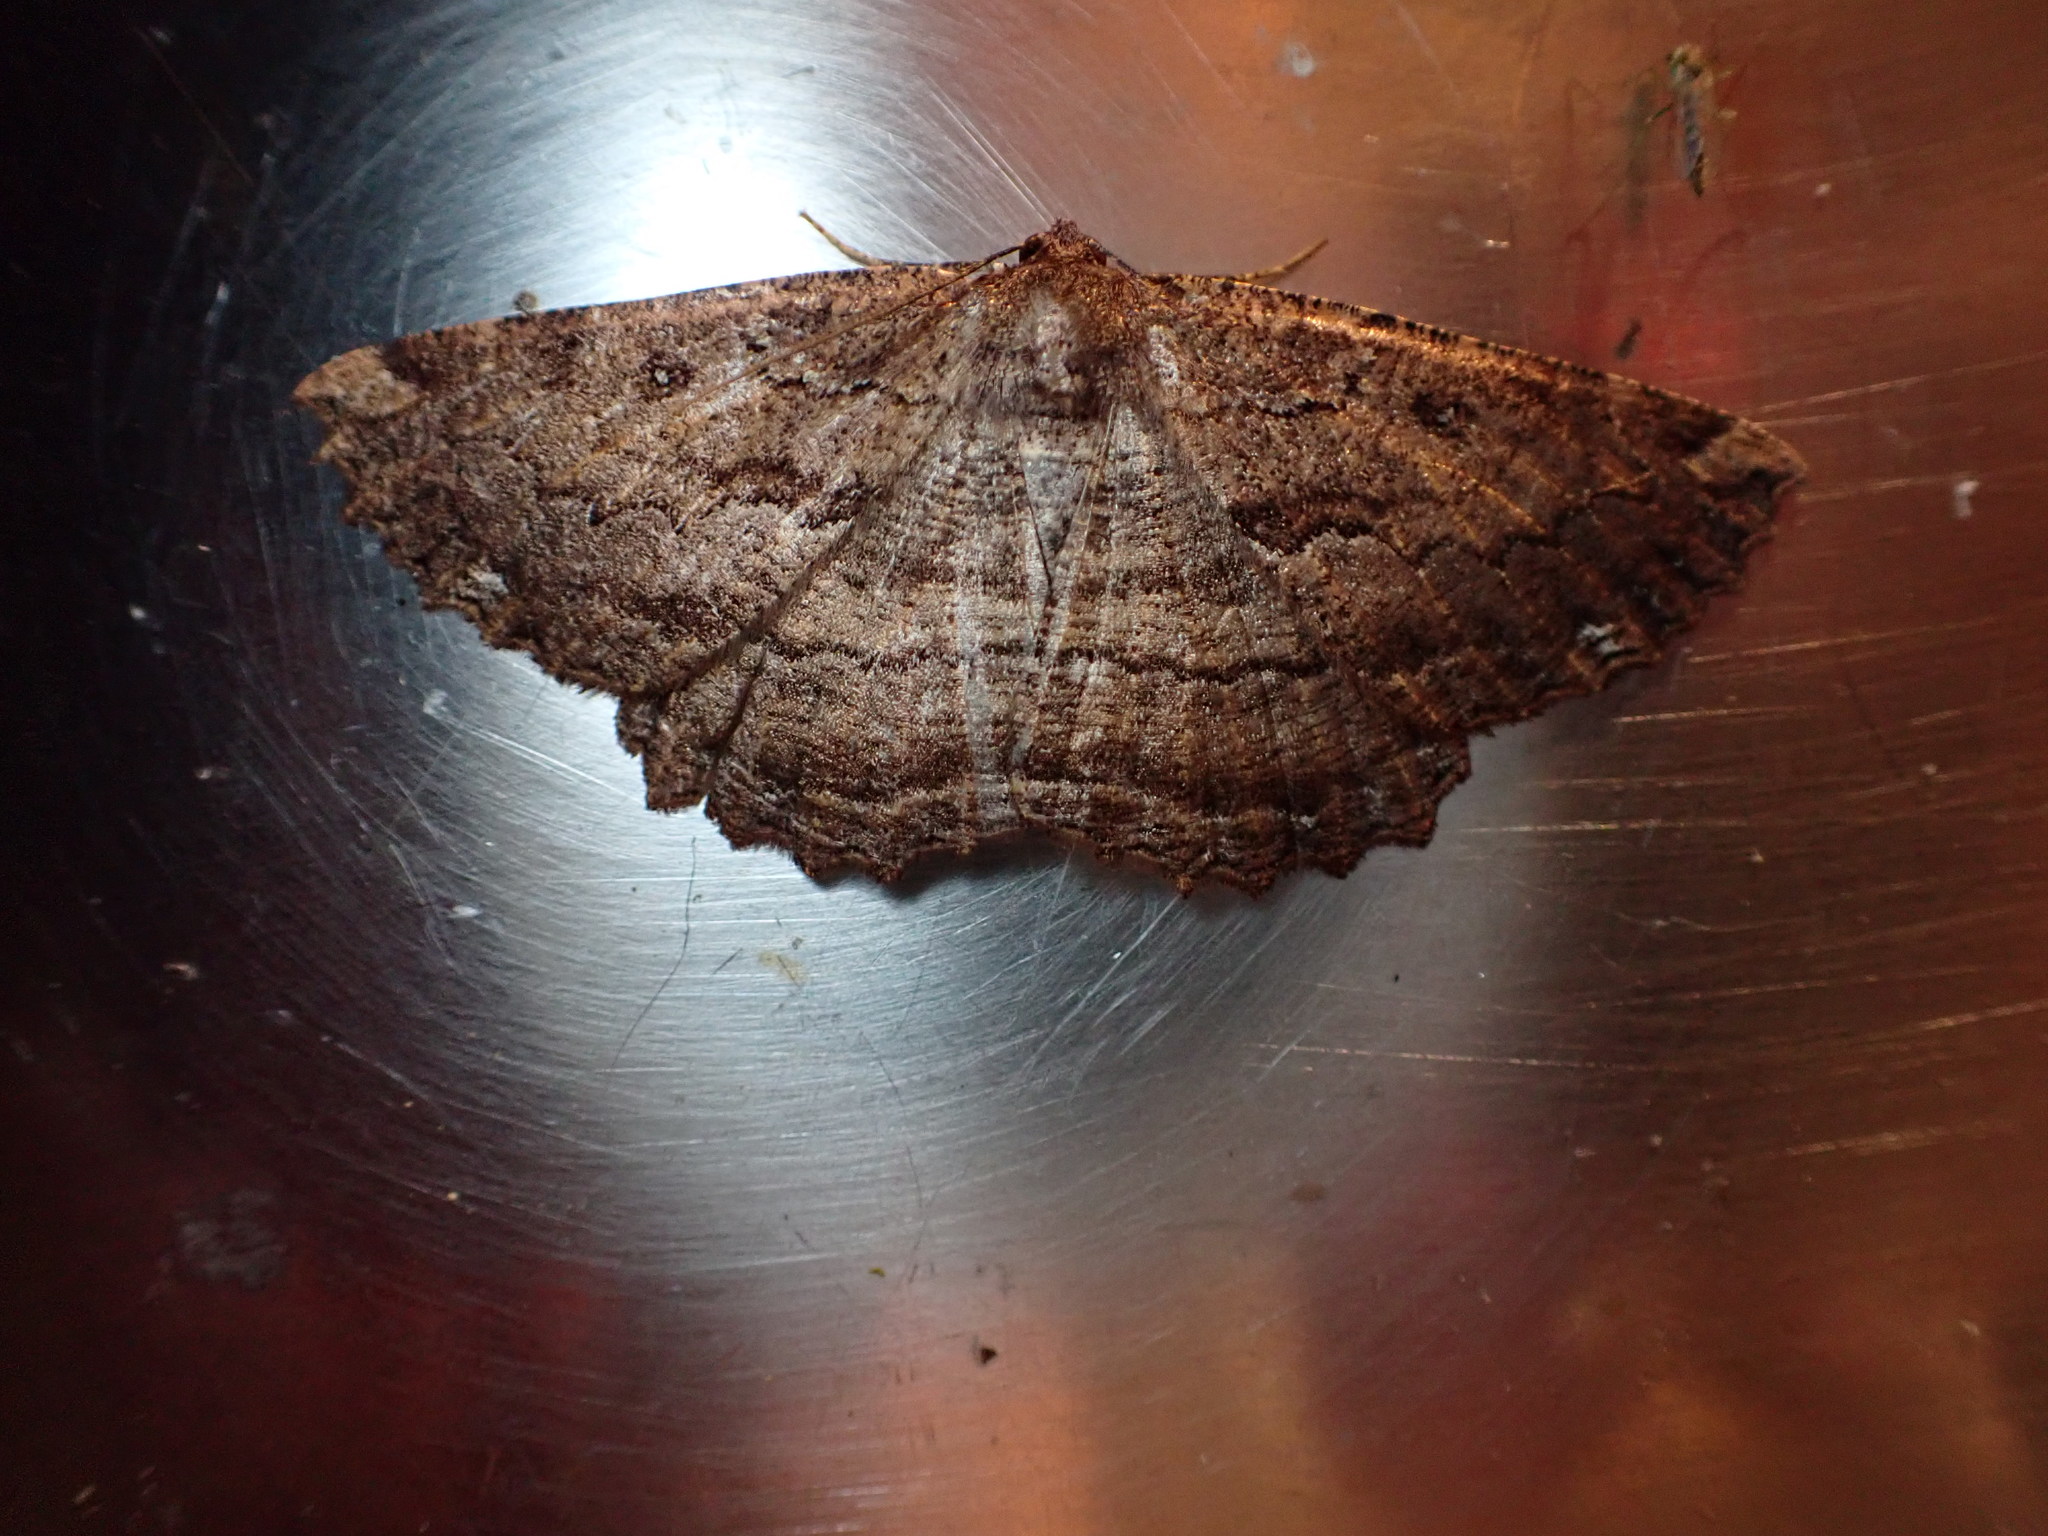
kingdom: Animalia
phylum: Arthropoda
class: Insecta
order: Lepidoptera
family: Geometridae
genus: Gellonia
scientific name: Gellonia dejectaria
